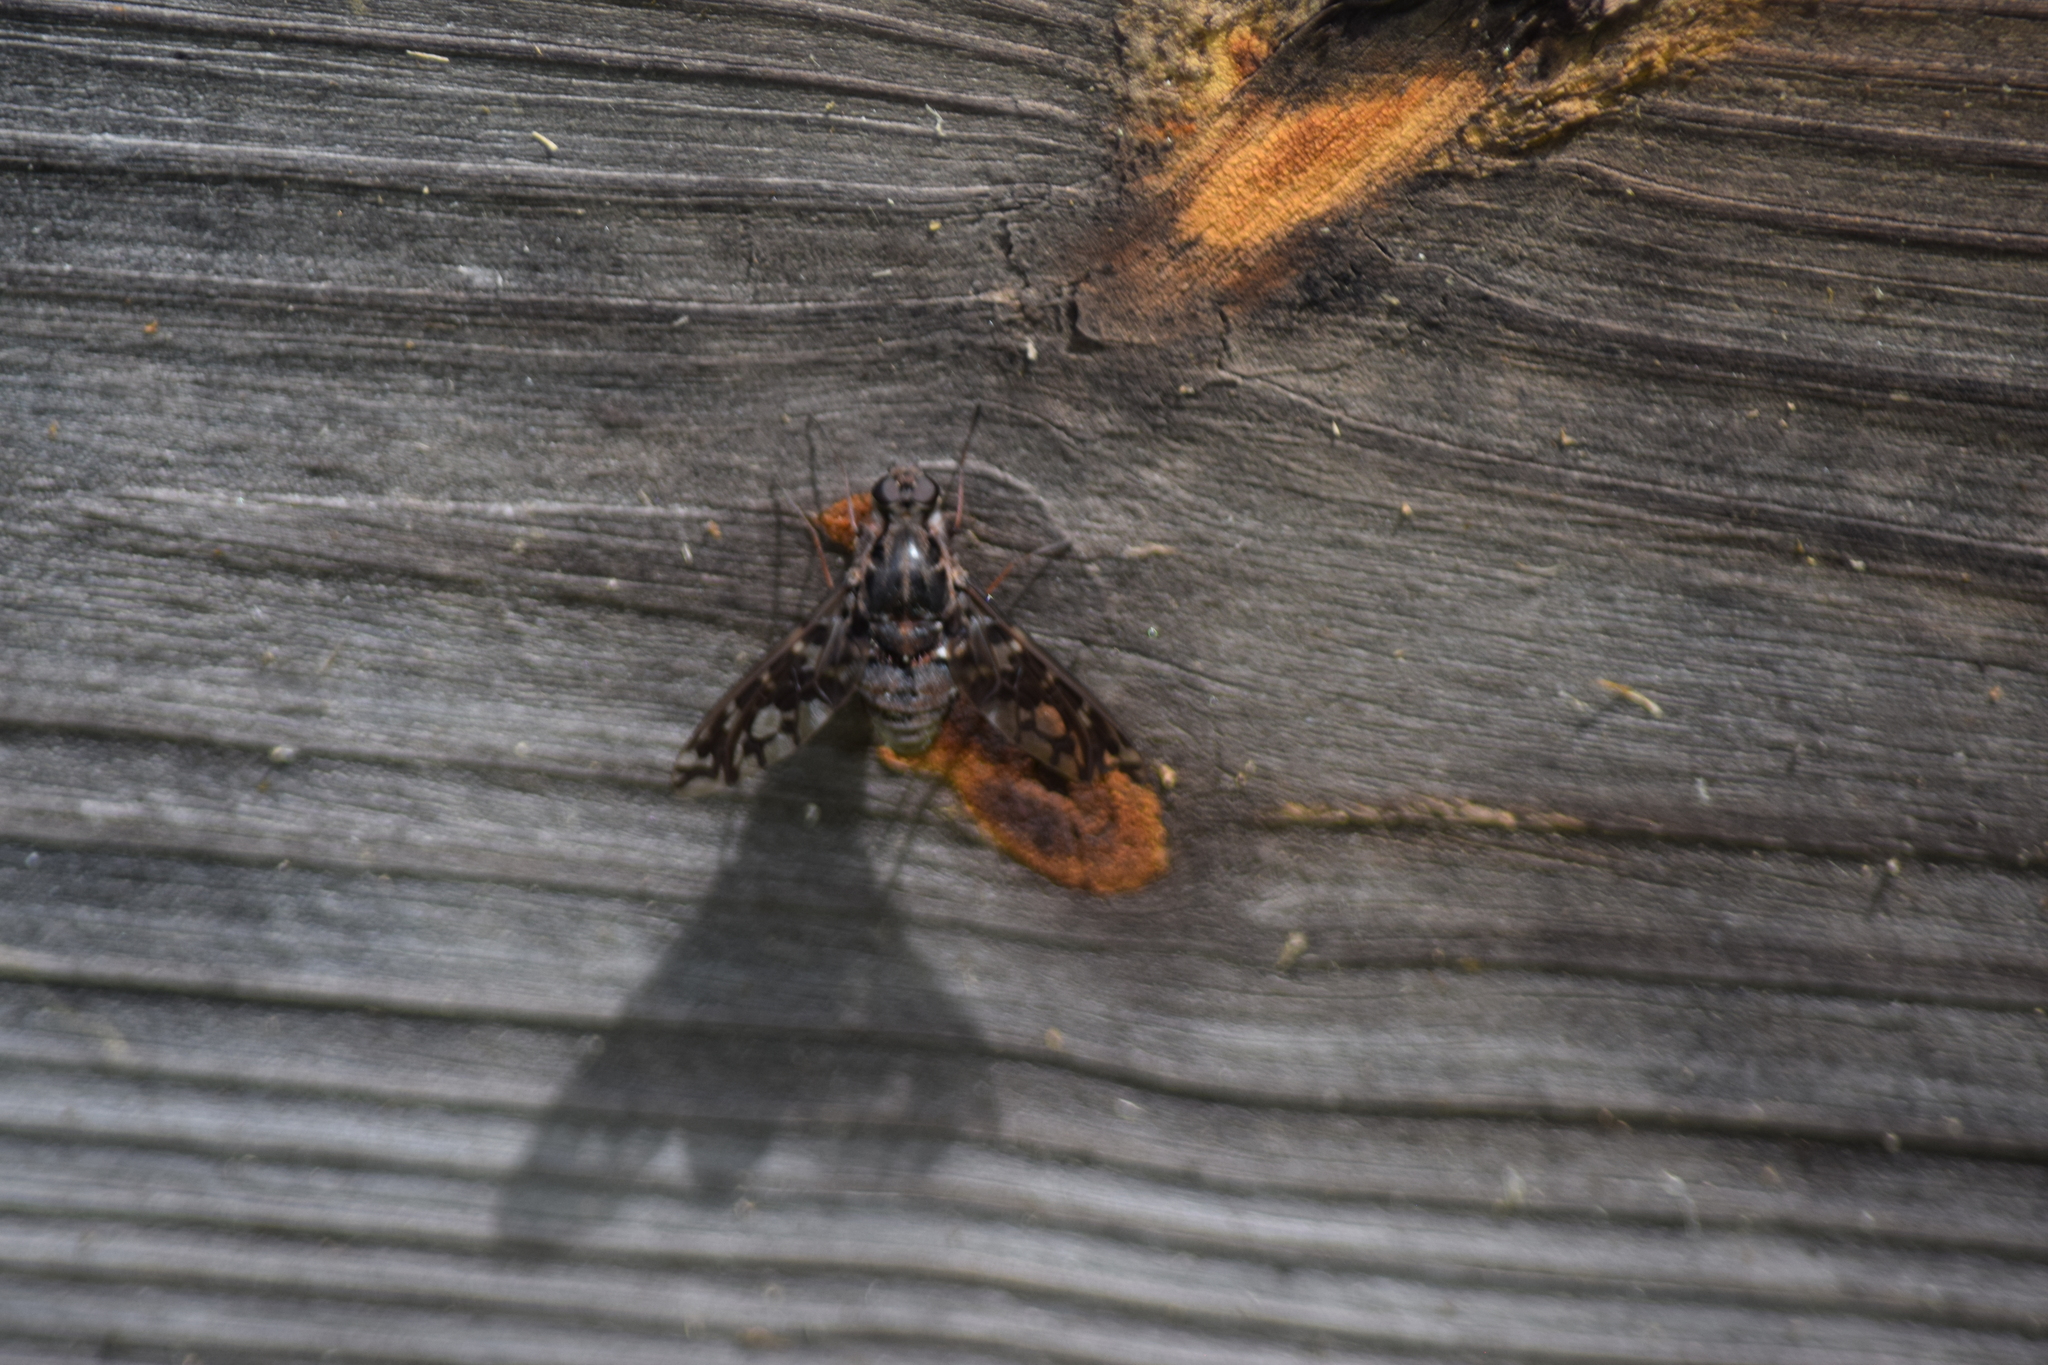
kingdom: Animalia
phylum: Arthropoda
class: Insecta
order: Diptera
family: Bombyliidae
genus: Xenox
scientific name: Xenox tigrinus
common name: Tiger bee fly
